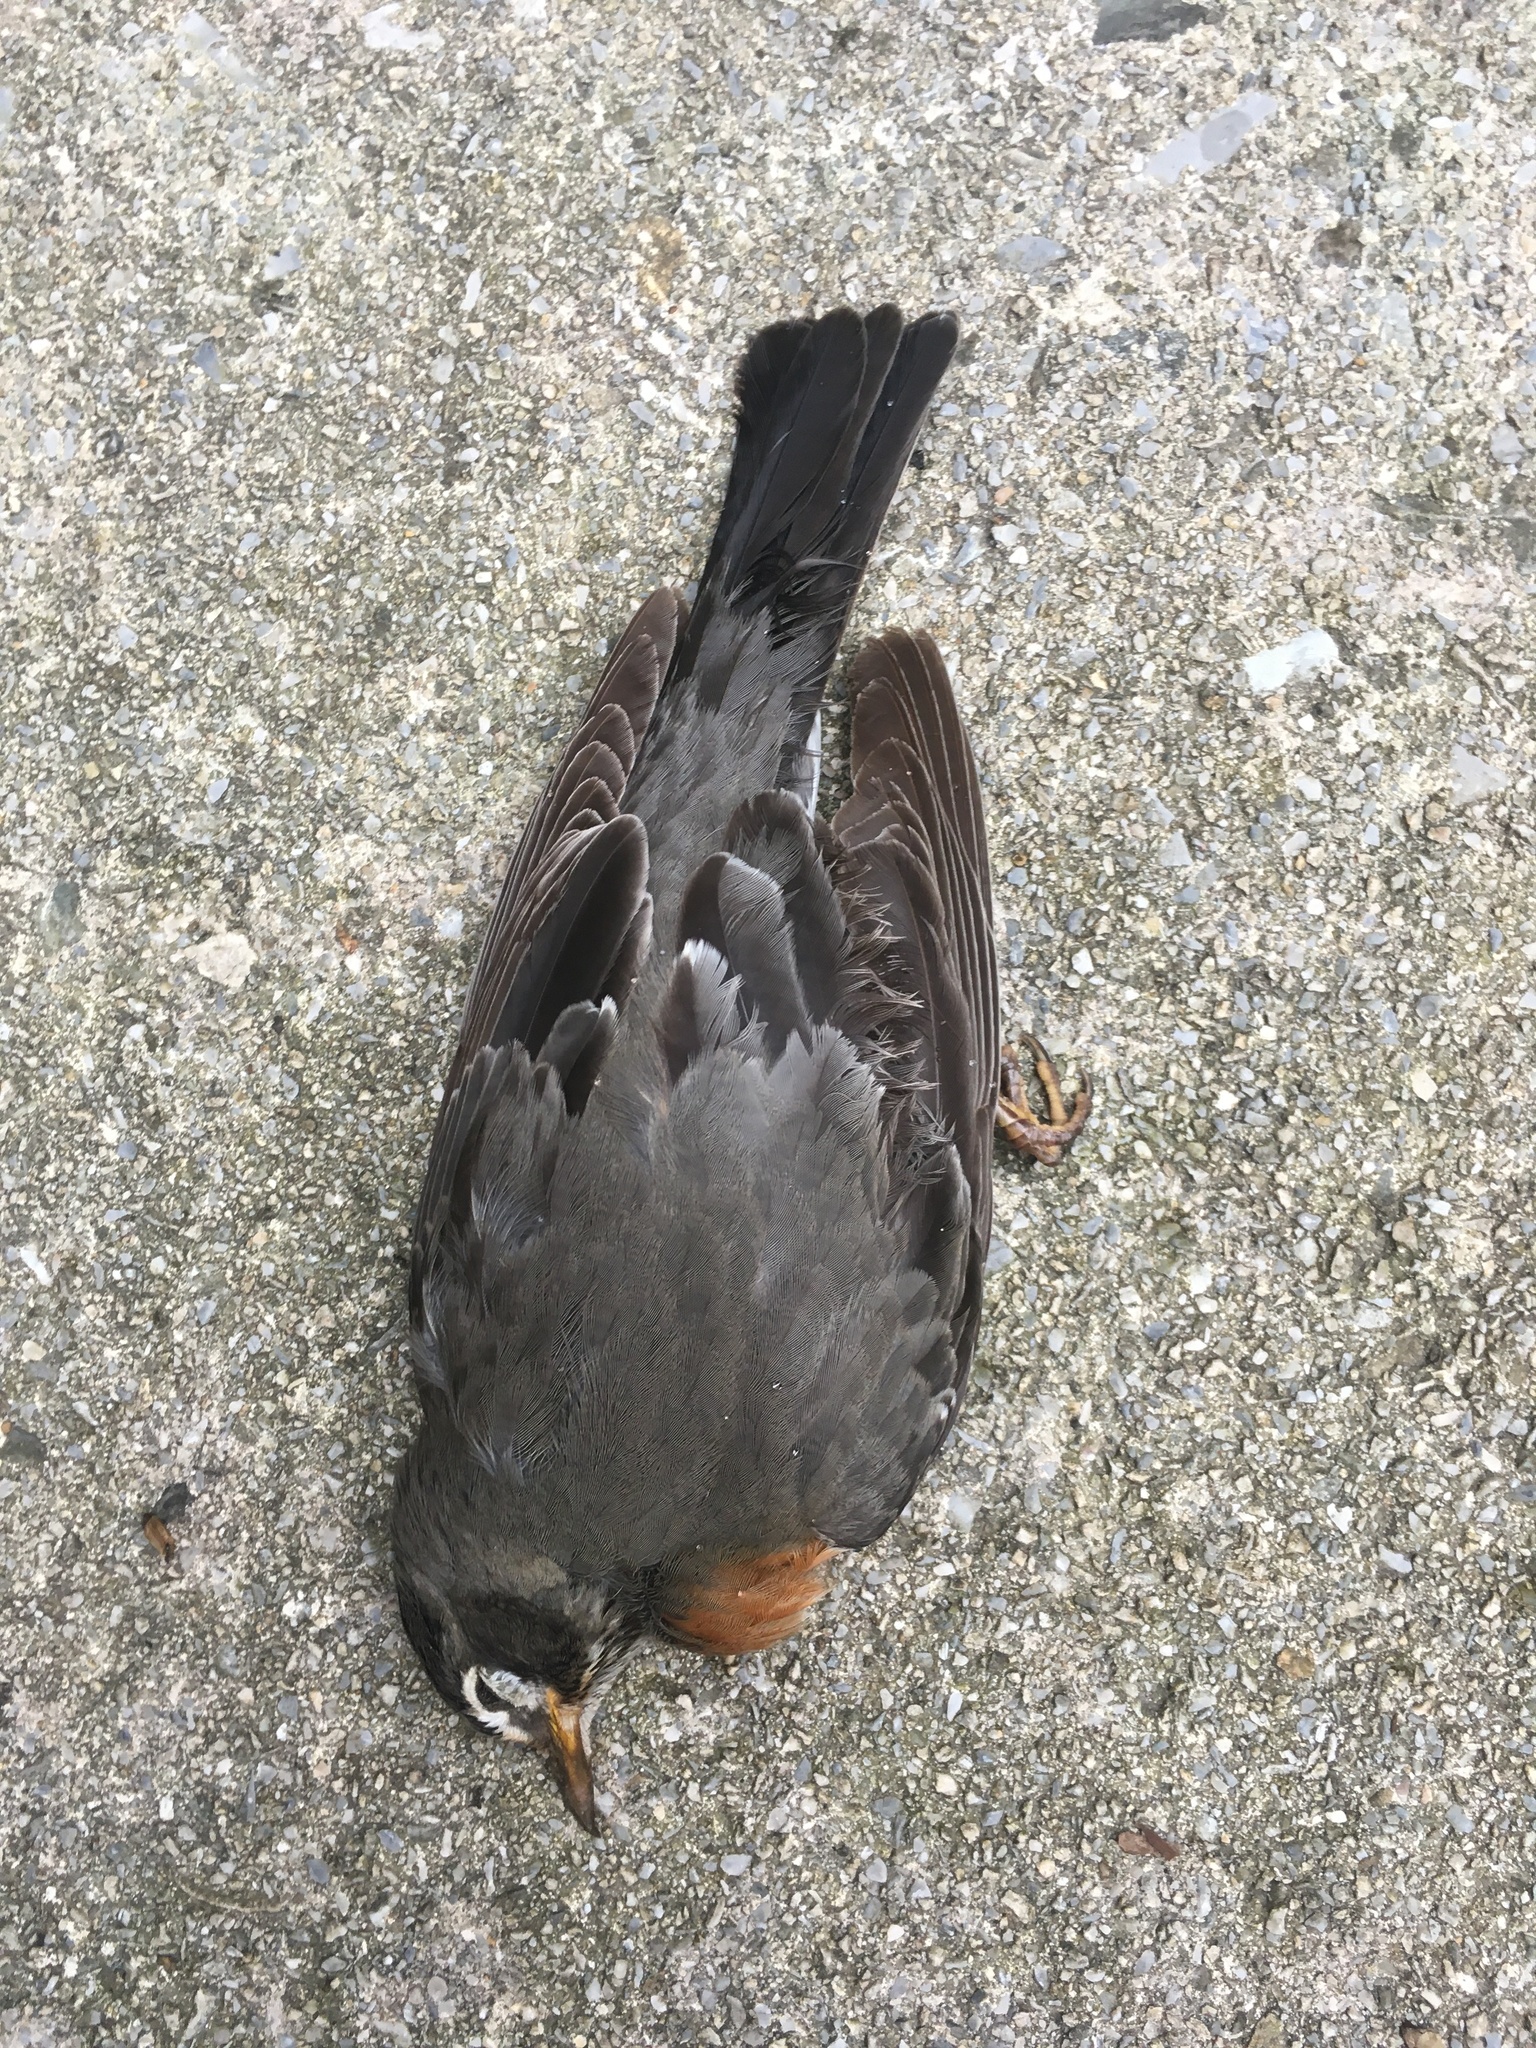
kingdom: Animalia
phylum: Chordata
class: Aves
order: Passeriformes
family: Turdidae
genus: Turdus
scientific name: Turdus migratorius
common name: American robin
